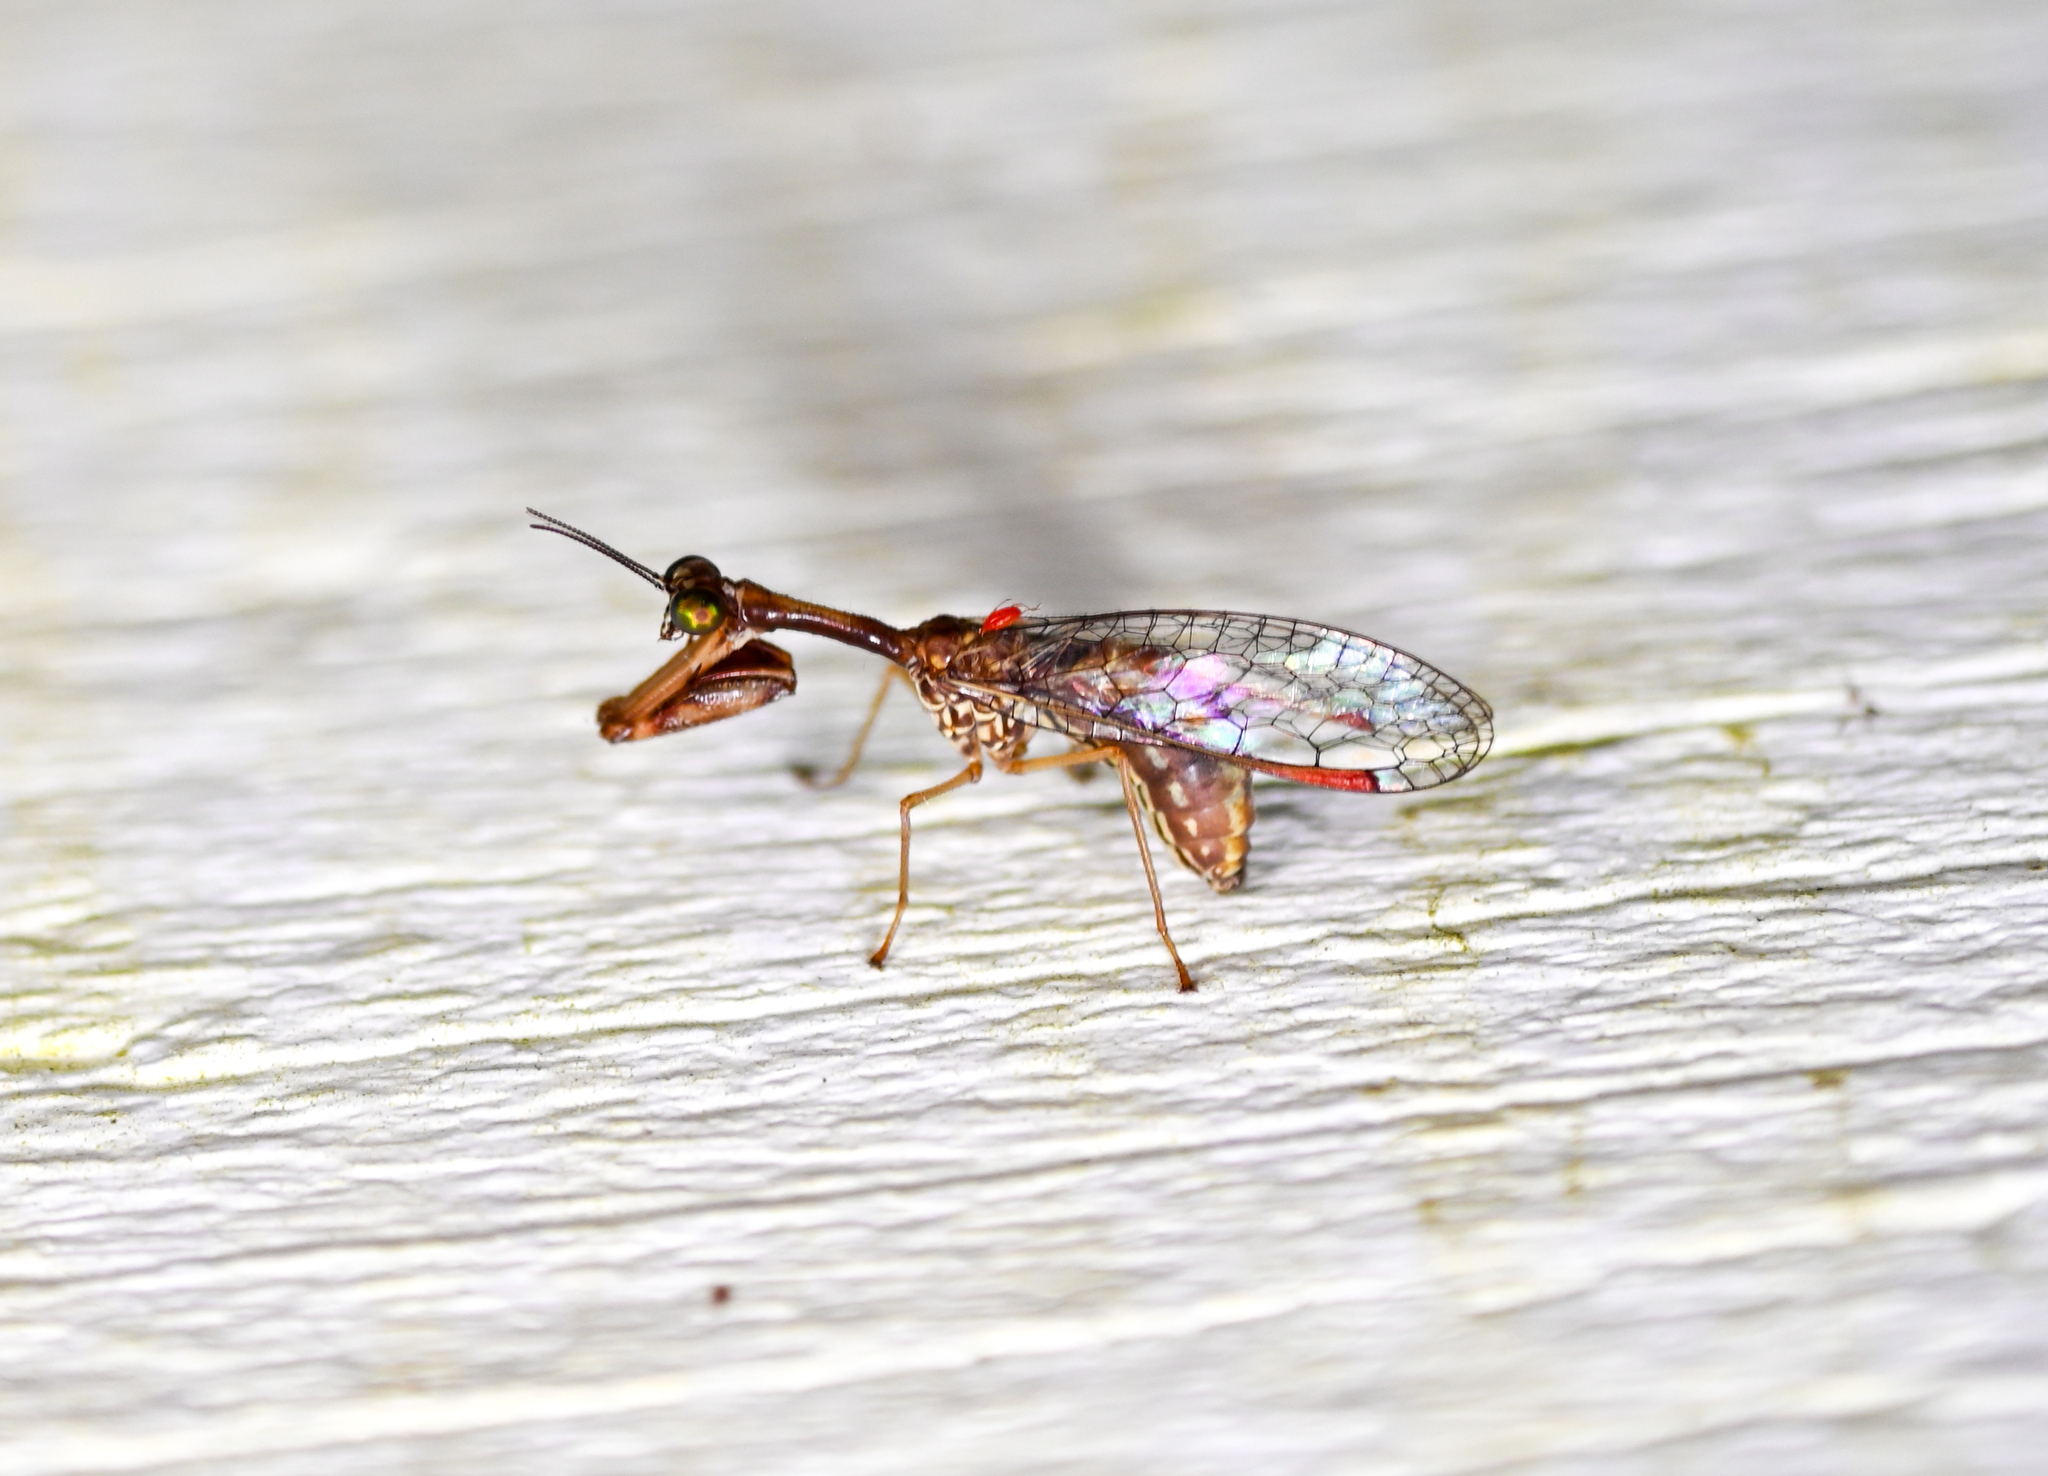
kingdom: Animalia
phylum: Arthropoda
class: Insecta
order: Neuroptera
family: Mantispidae
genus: Leptomantispa
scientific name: Leptomantispa pulchella
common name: Stevens's mantidfly
